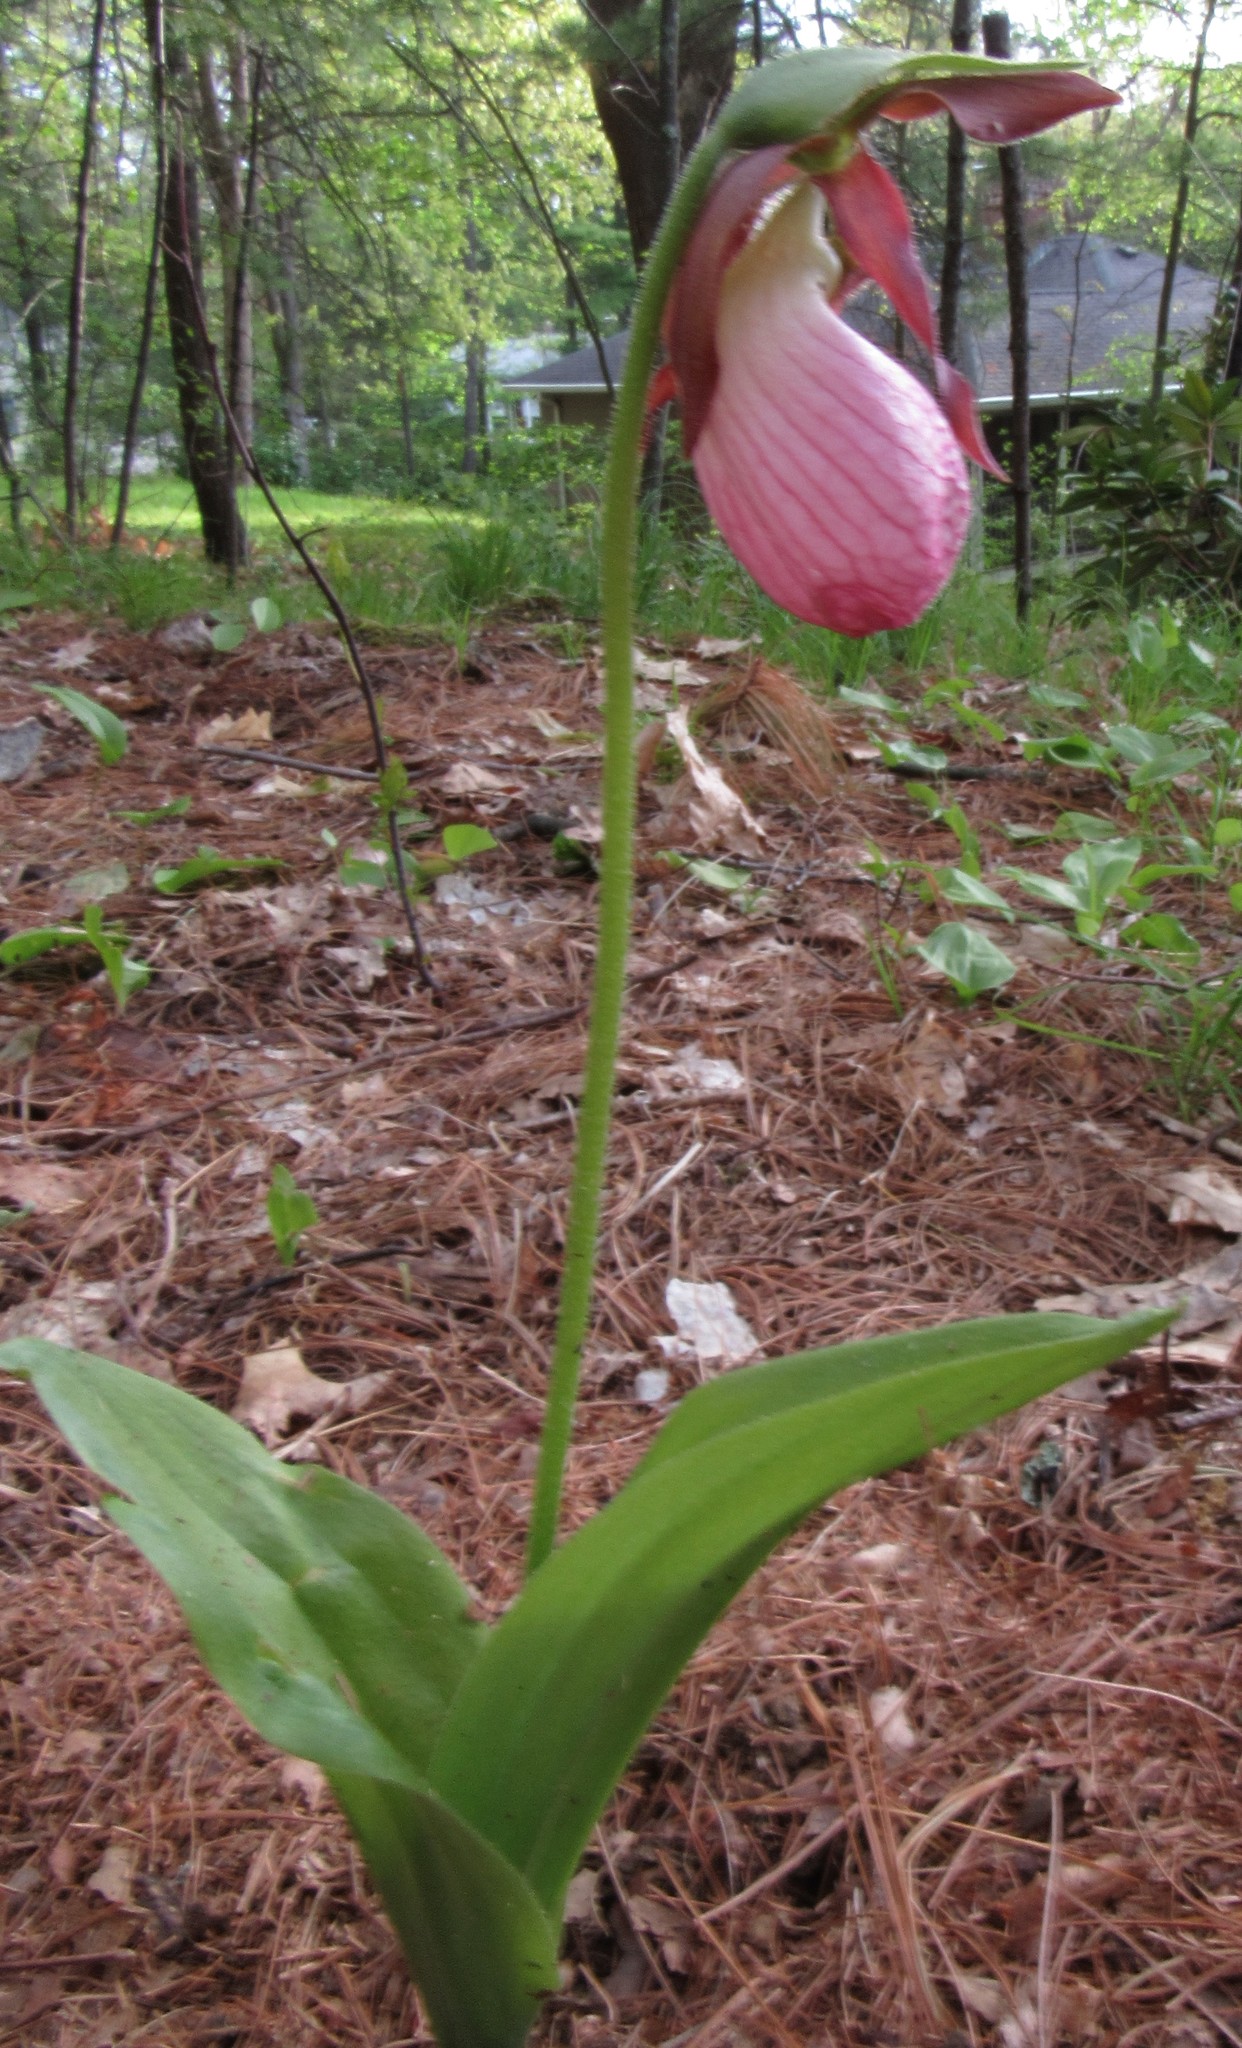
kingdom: Plantae
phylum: Tracheophyta
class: Liliopsida
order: Asparagales
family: Orchidaceae
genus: Cypripedium
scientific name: Cypripedium acaule
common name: Pink lady's-slipper
